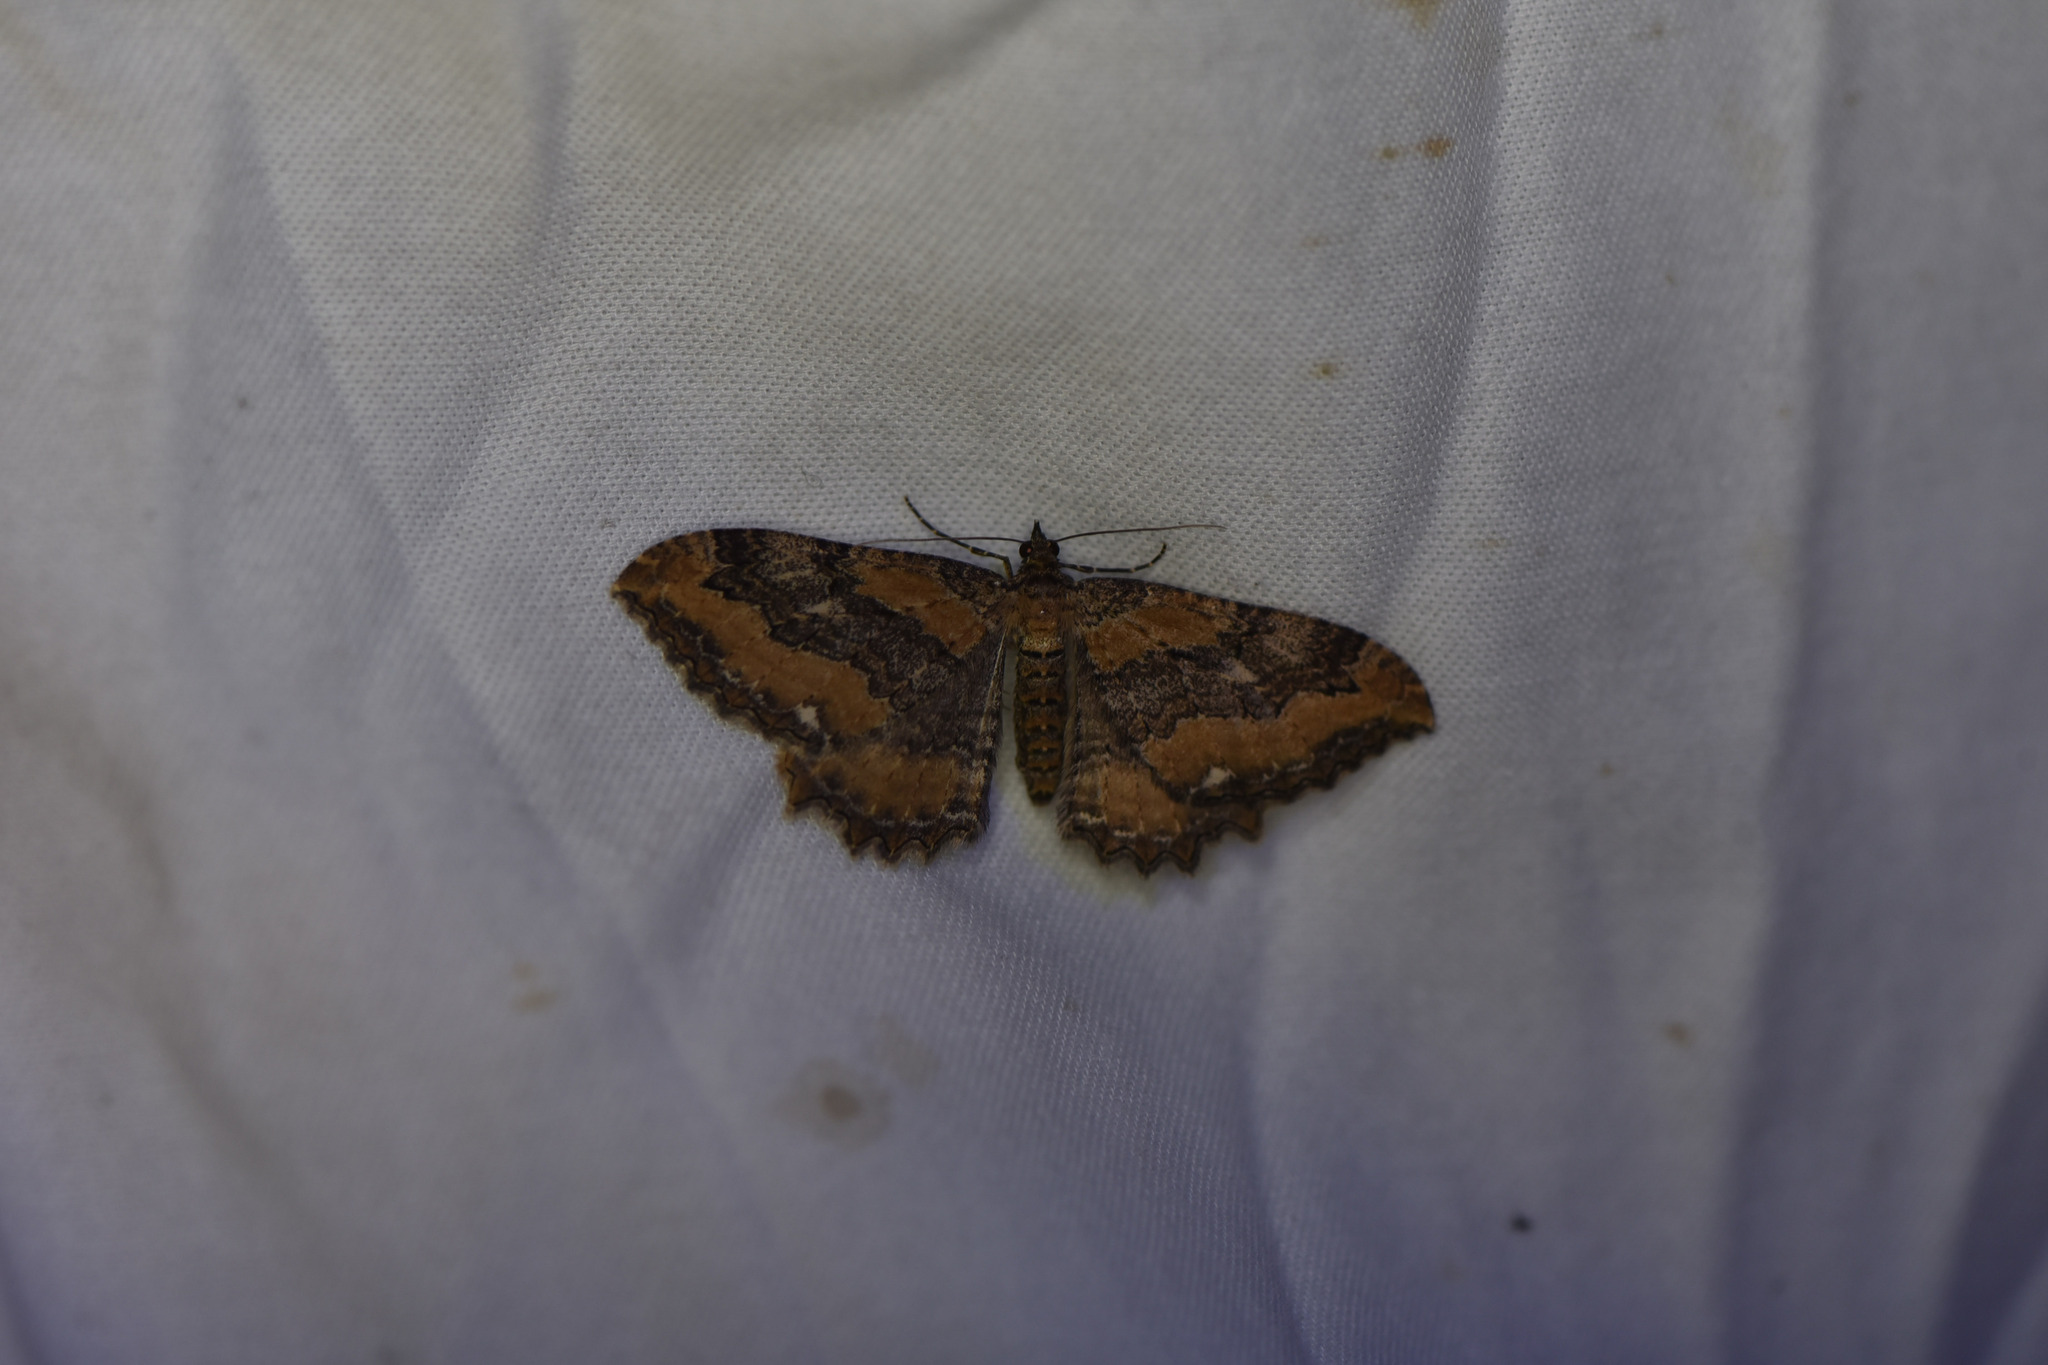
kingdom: Animalia
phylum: Arthropoda
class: Insecta
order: Lepidoptera
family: Geometridae
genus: Rheumaptera
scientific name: Rheumaptera
